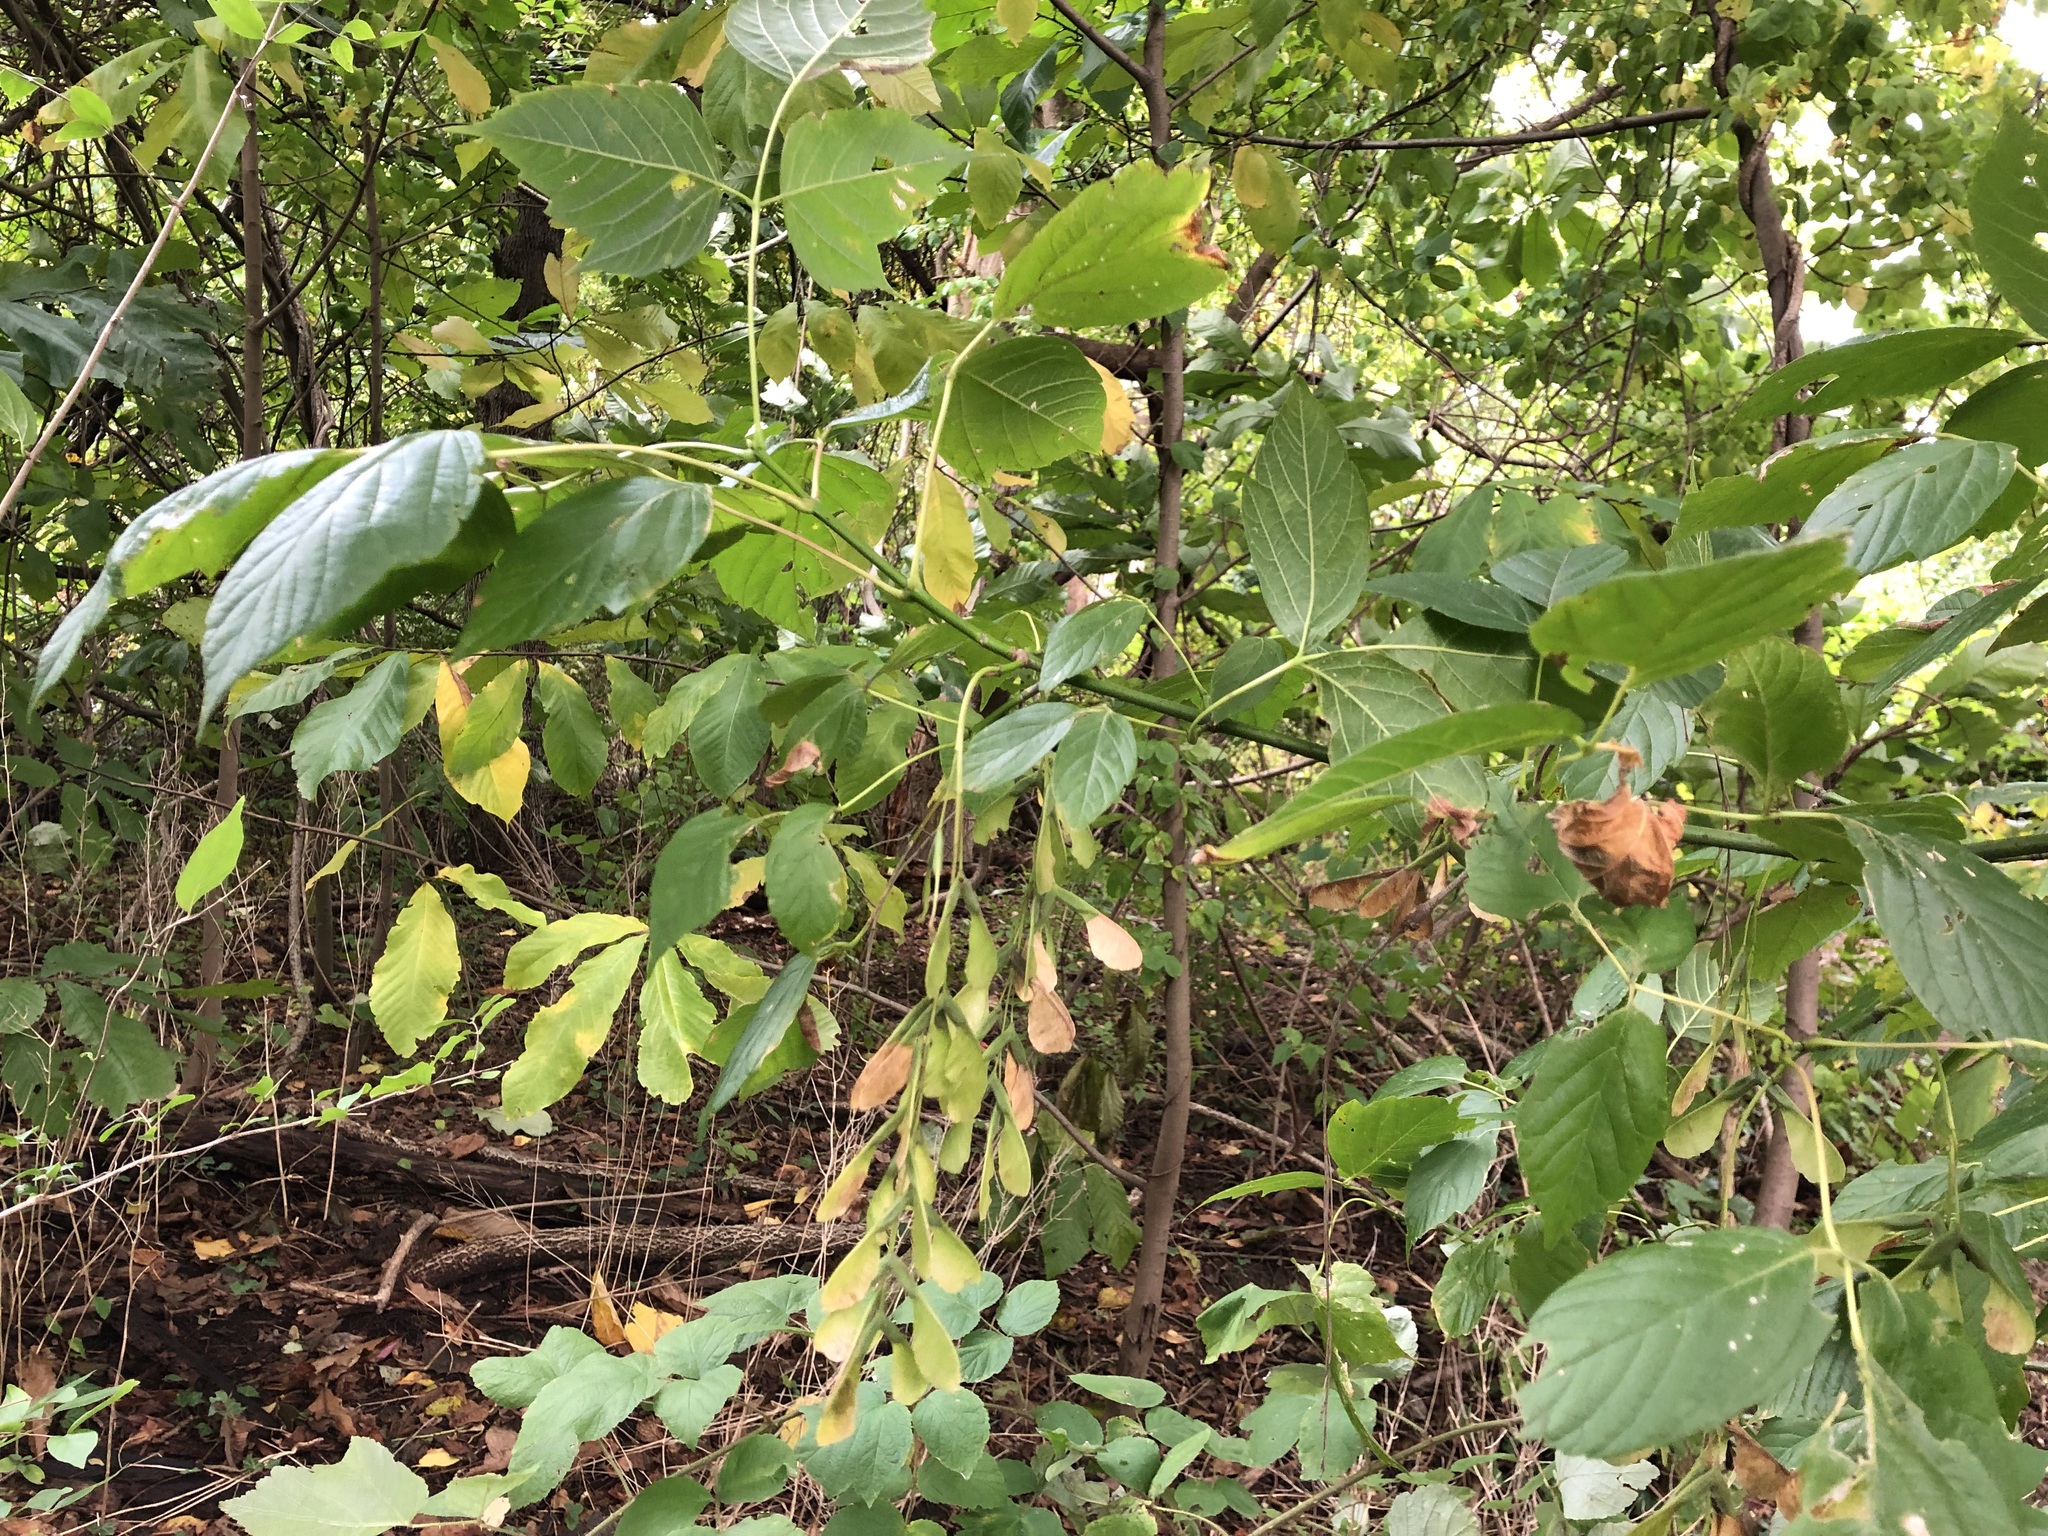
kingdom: Plantae
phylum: Tracheophyta
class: Magnoliopsida
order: Sapindales
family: Sapindaceae
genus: Acer
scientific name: Acer negundo
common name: Ashleaf maple
